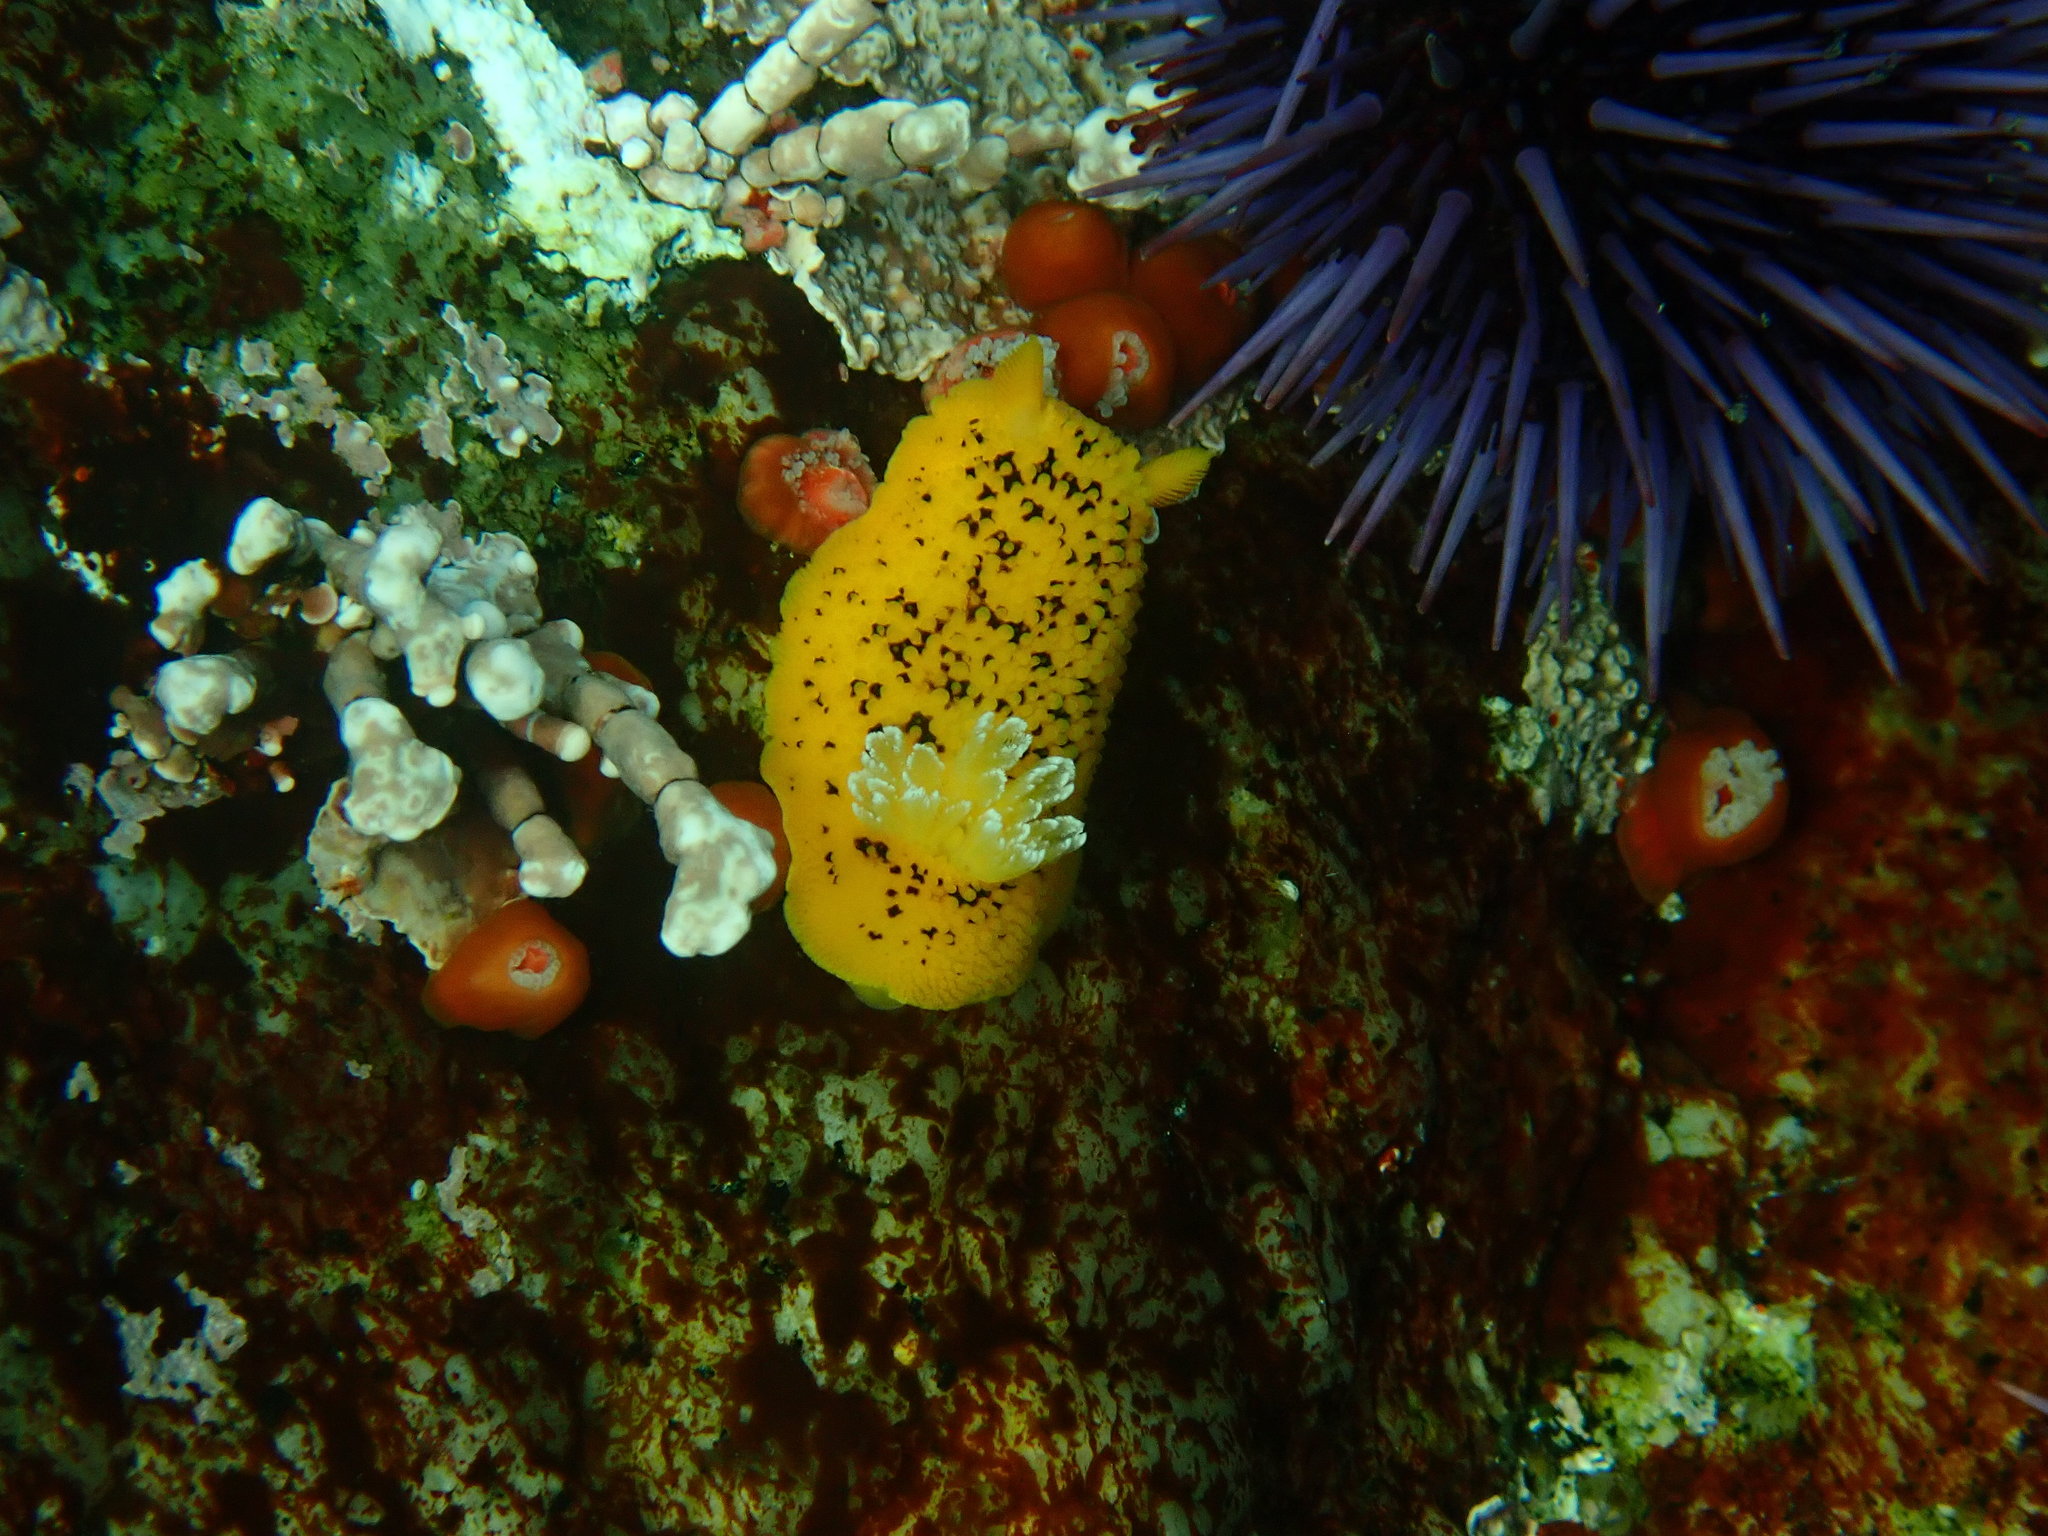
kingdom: Animalia
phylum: Mollusca
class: Gastropoda
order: Nudibranchia
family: Discodorididae
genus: Peltodoris
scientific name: Peltodoris nobilis
